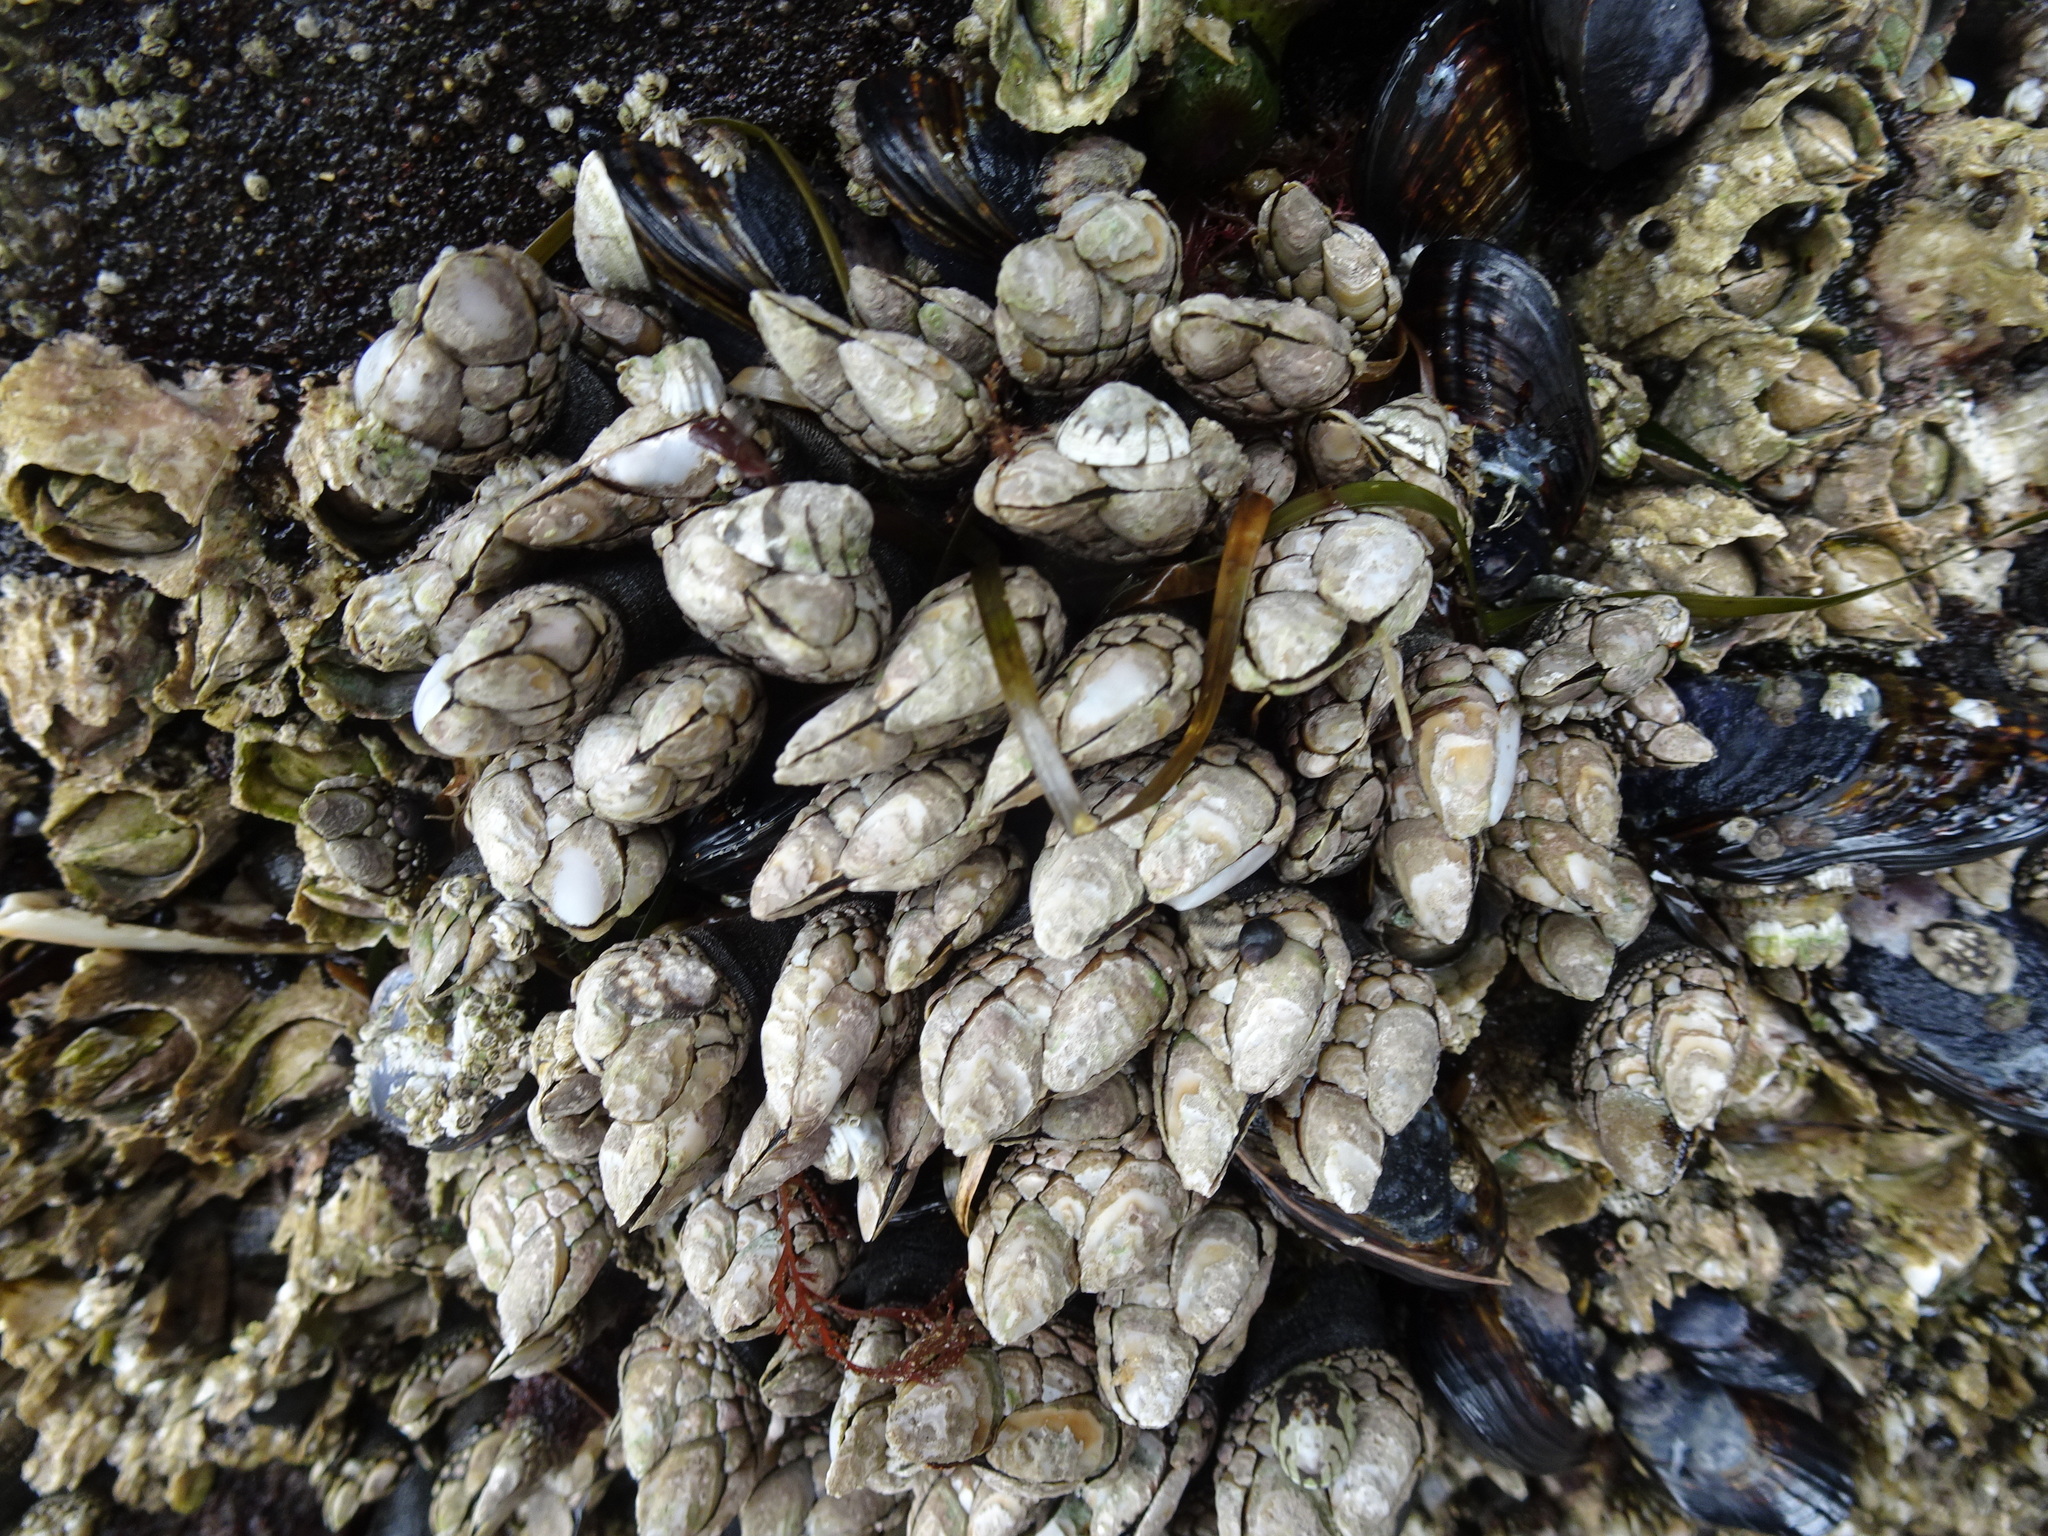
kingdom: Animalia
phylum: Arthropoda
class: Maxillopoda
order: Pedunculata
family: Pollicipedidae
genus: Pollicipes
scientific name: Pollicipes polymerus
